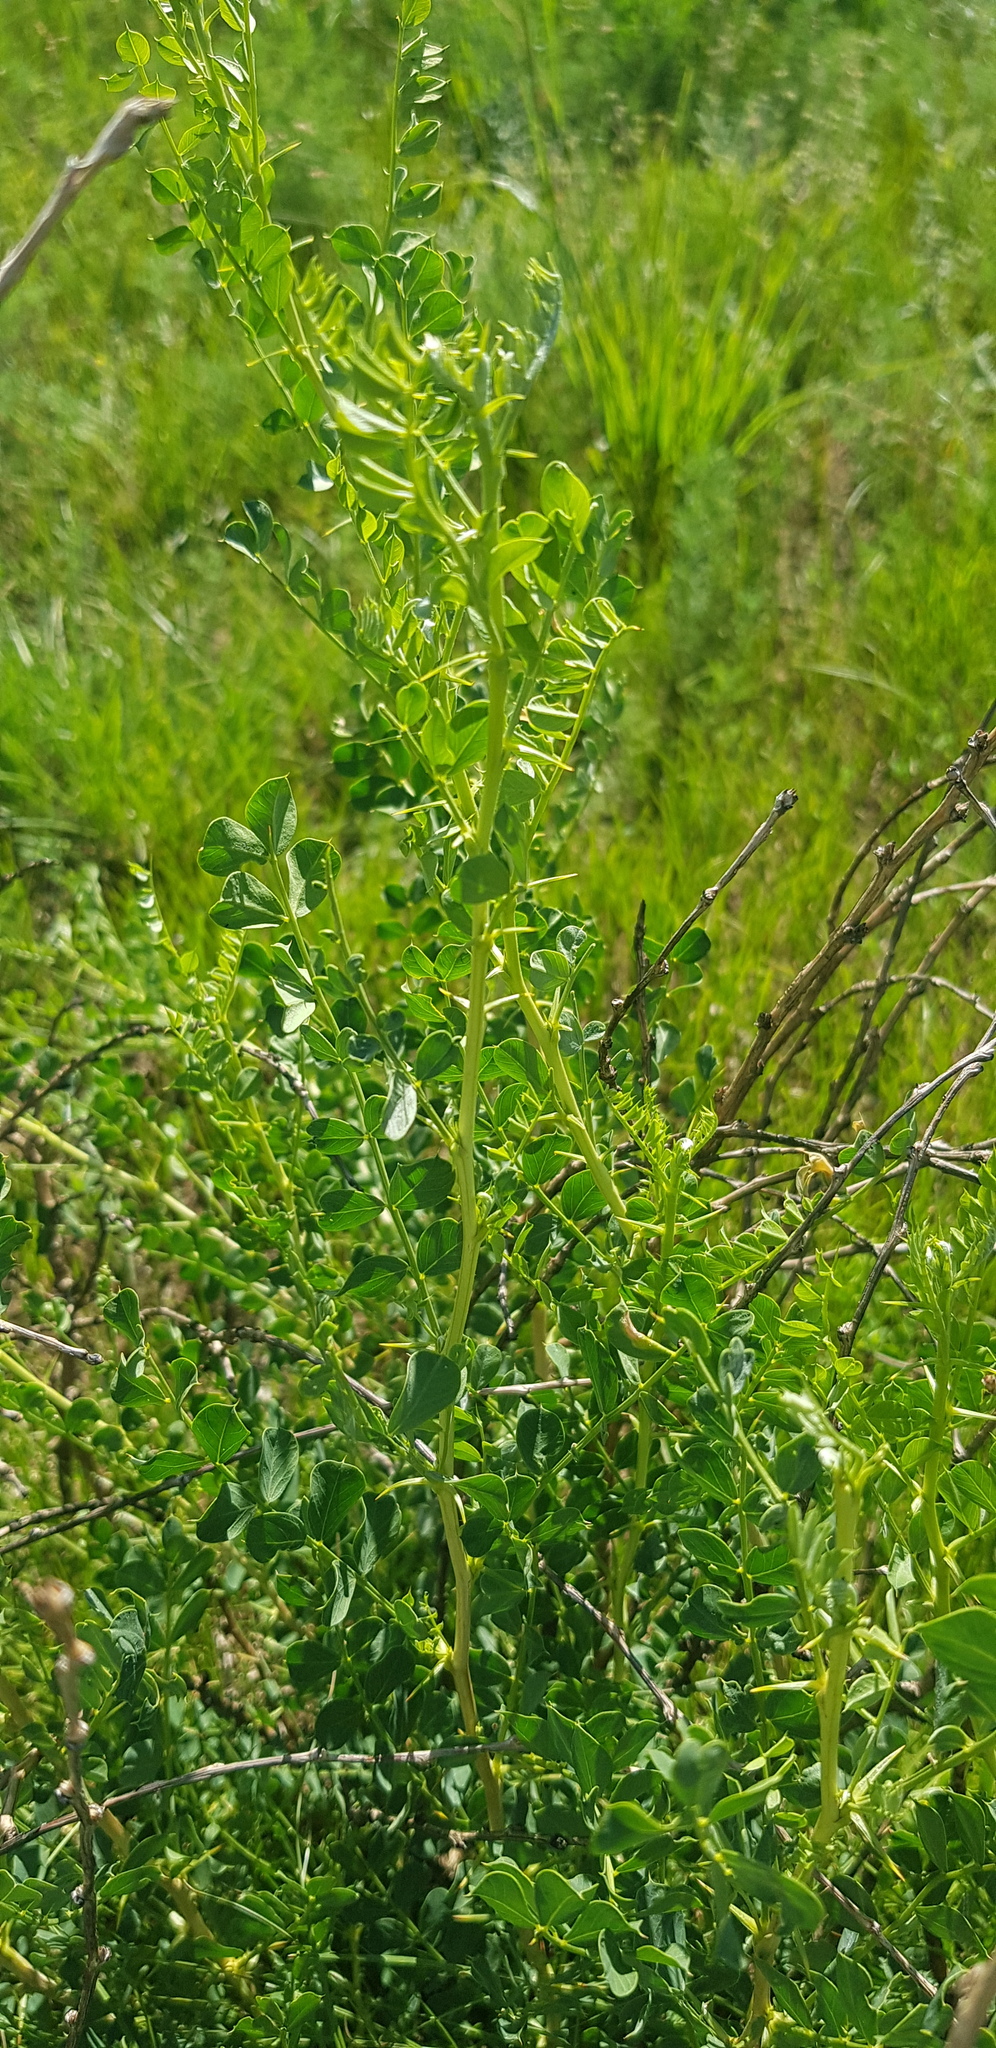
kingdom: Plantae
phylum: Tracheophyta
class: Magnoliopsida
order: Fabales
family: Fabaceae
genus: Sphaerophysa
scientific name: Sphaerophysa salsula
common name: Alkali swainsonpea
